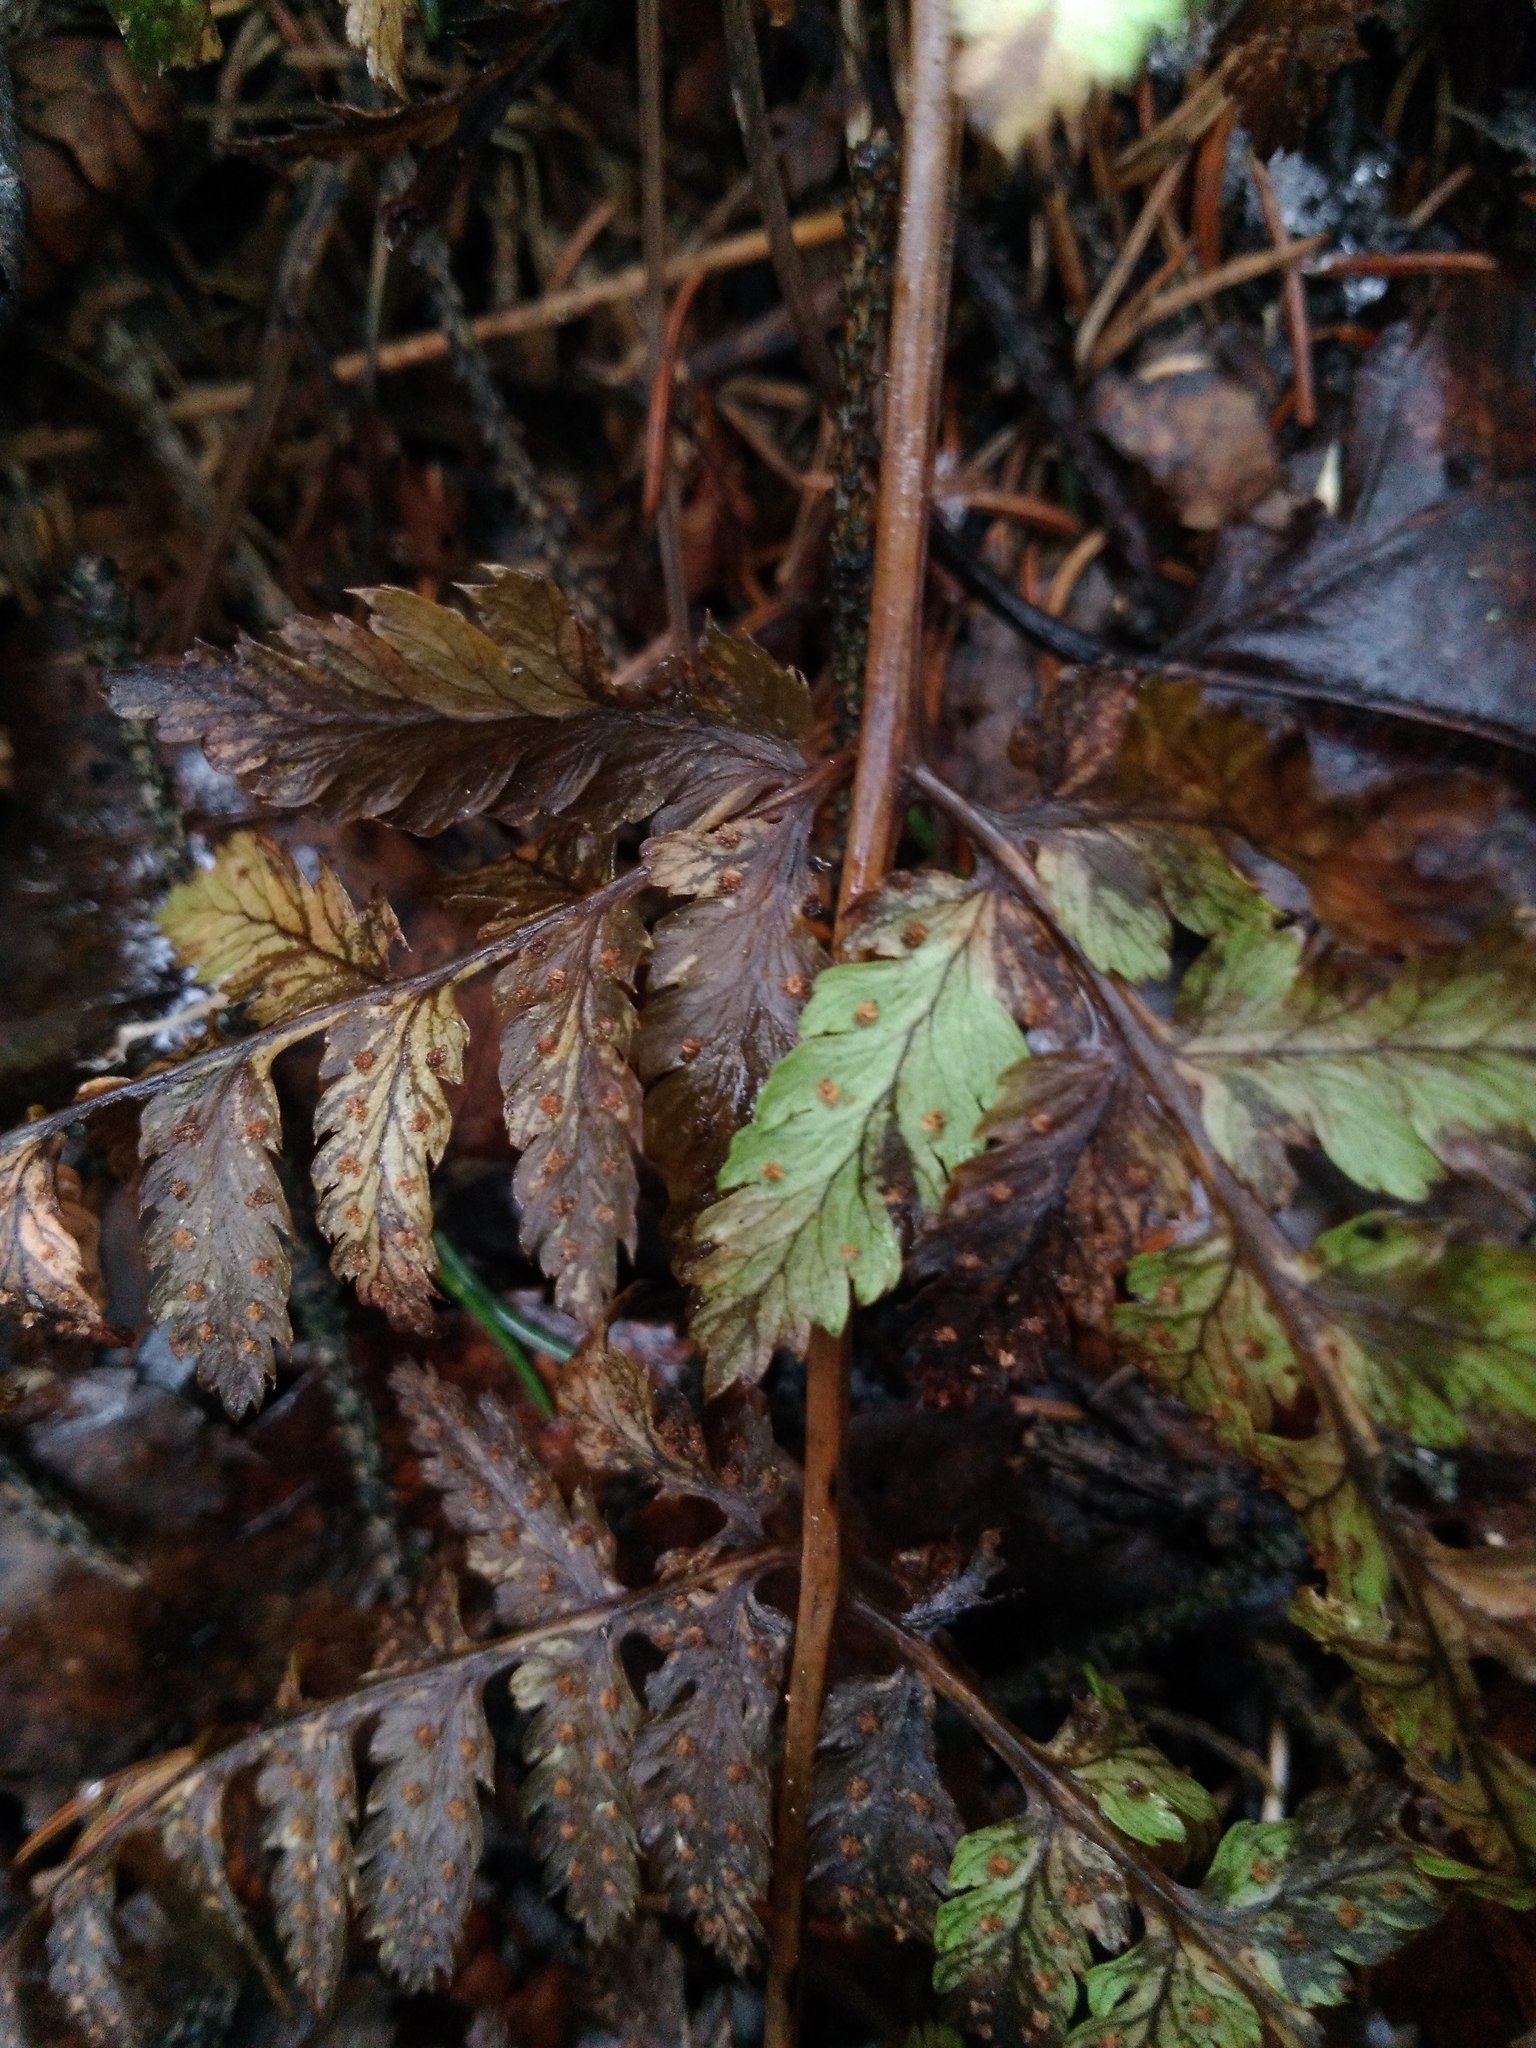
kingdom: Plantae
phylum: Tracheophyta
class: Polypodiopsida
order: Polypodiales
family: Dryopteridaceae
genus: Dryopteris
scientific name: Dryopteris carthusiana
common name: Narrow buckler-fern
